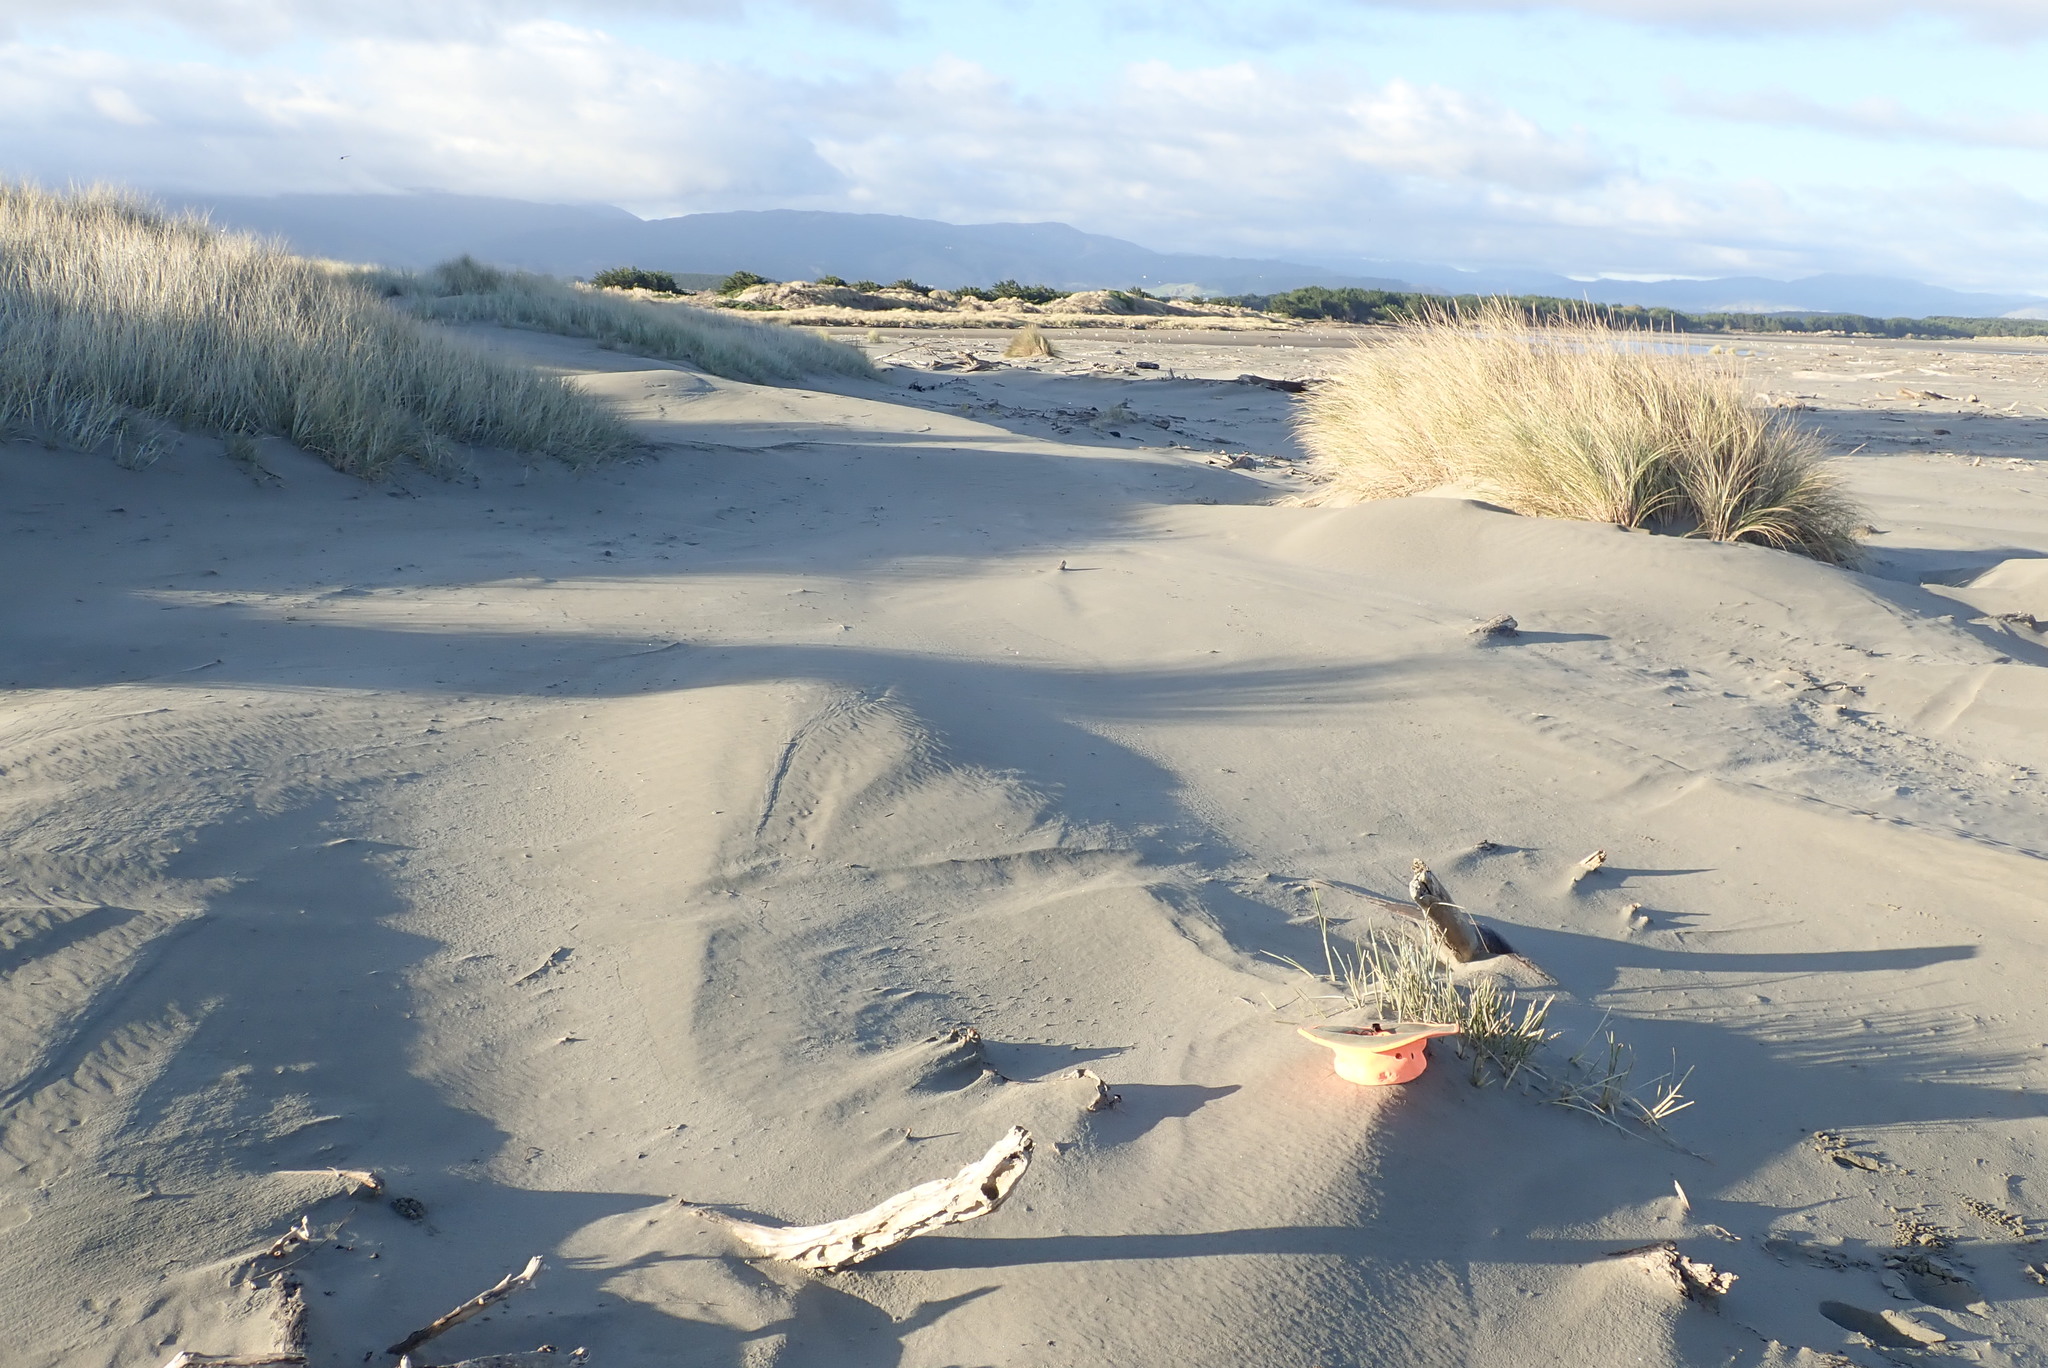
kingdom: Plantae
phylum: Tracheophyta
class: Liliopsida
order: Poales
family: Poaceae
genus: Spinifex
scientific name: Spinifex sericeus
